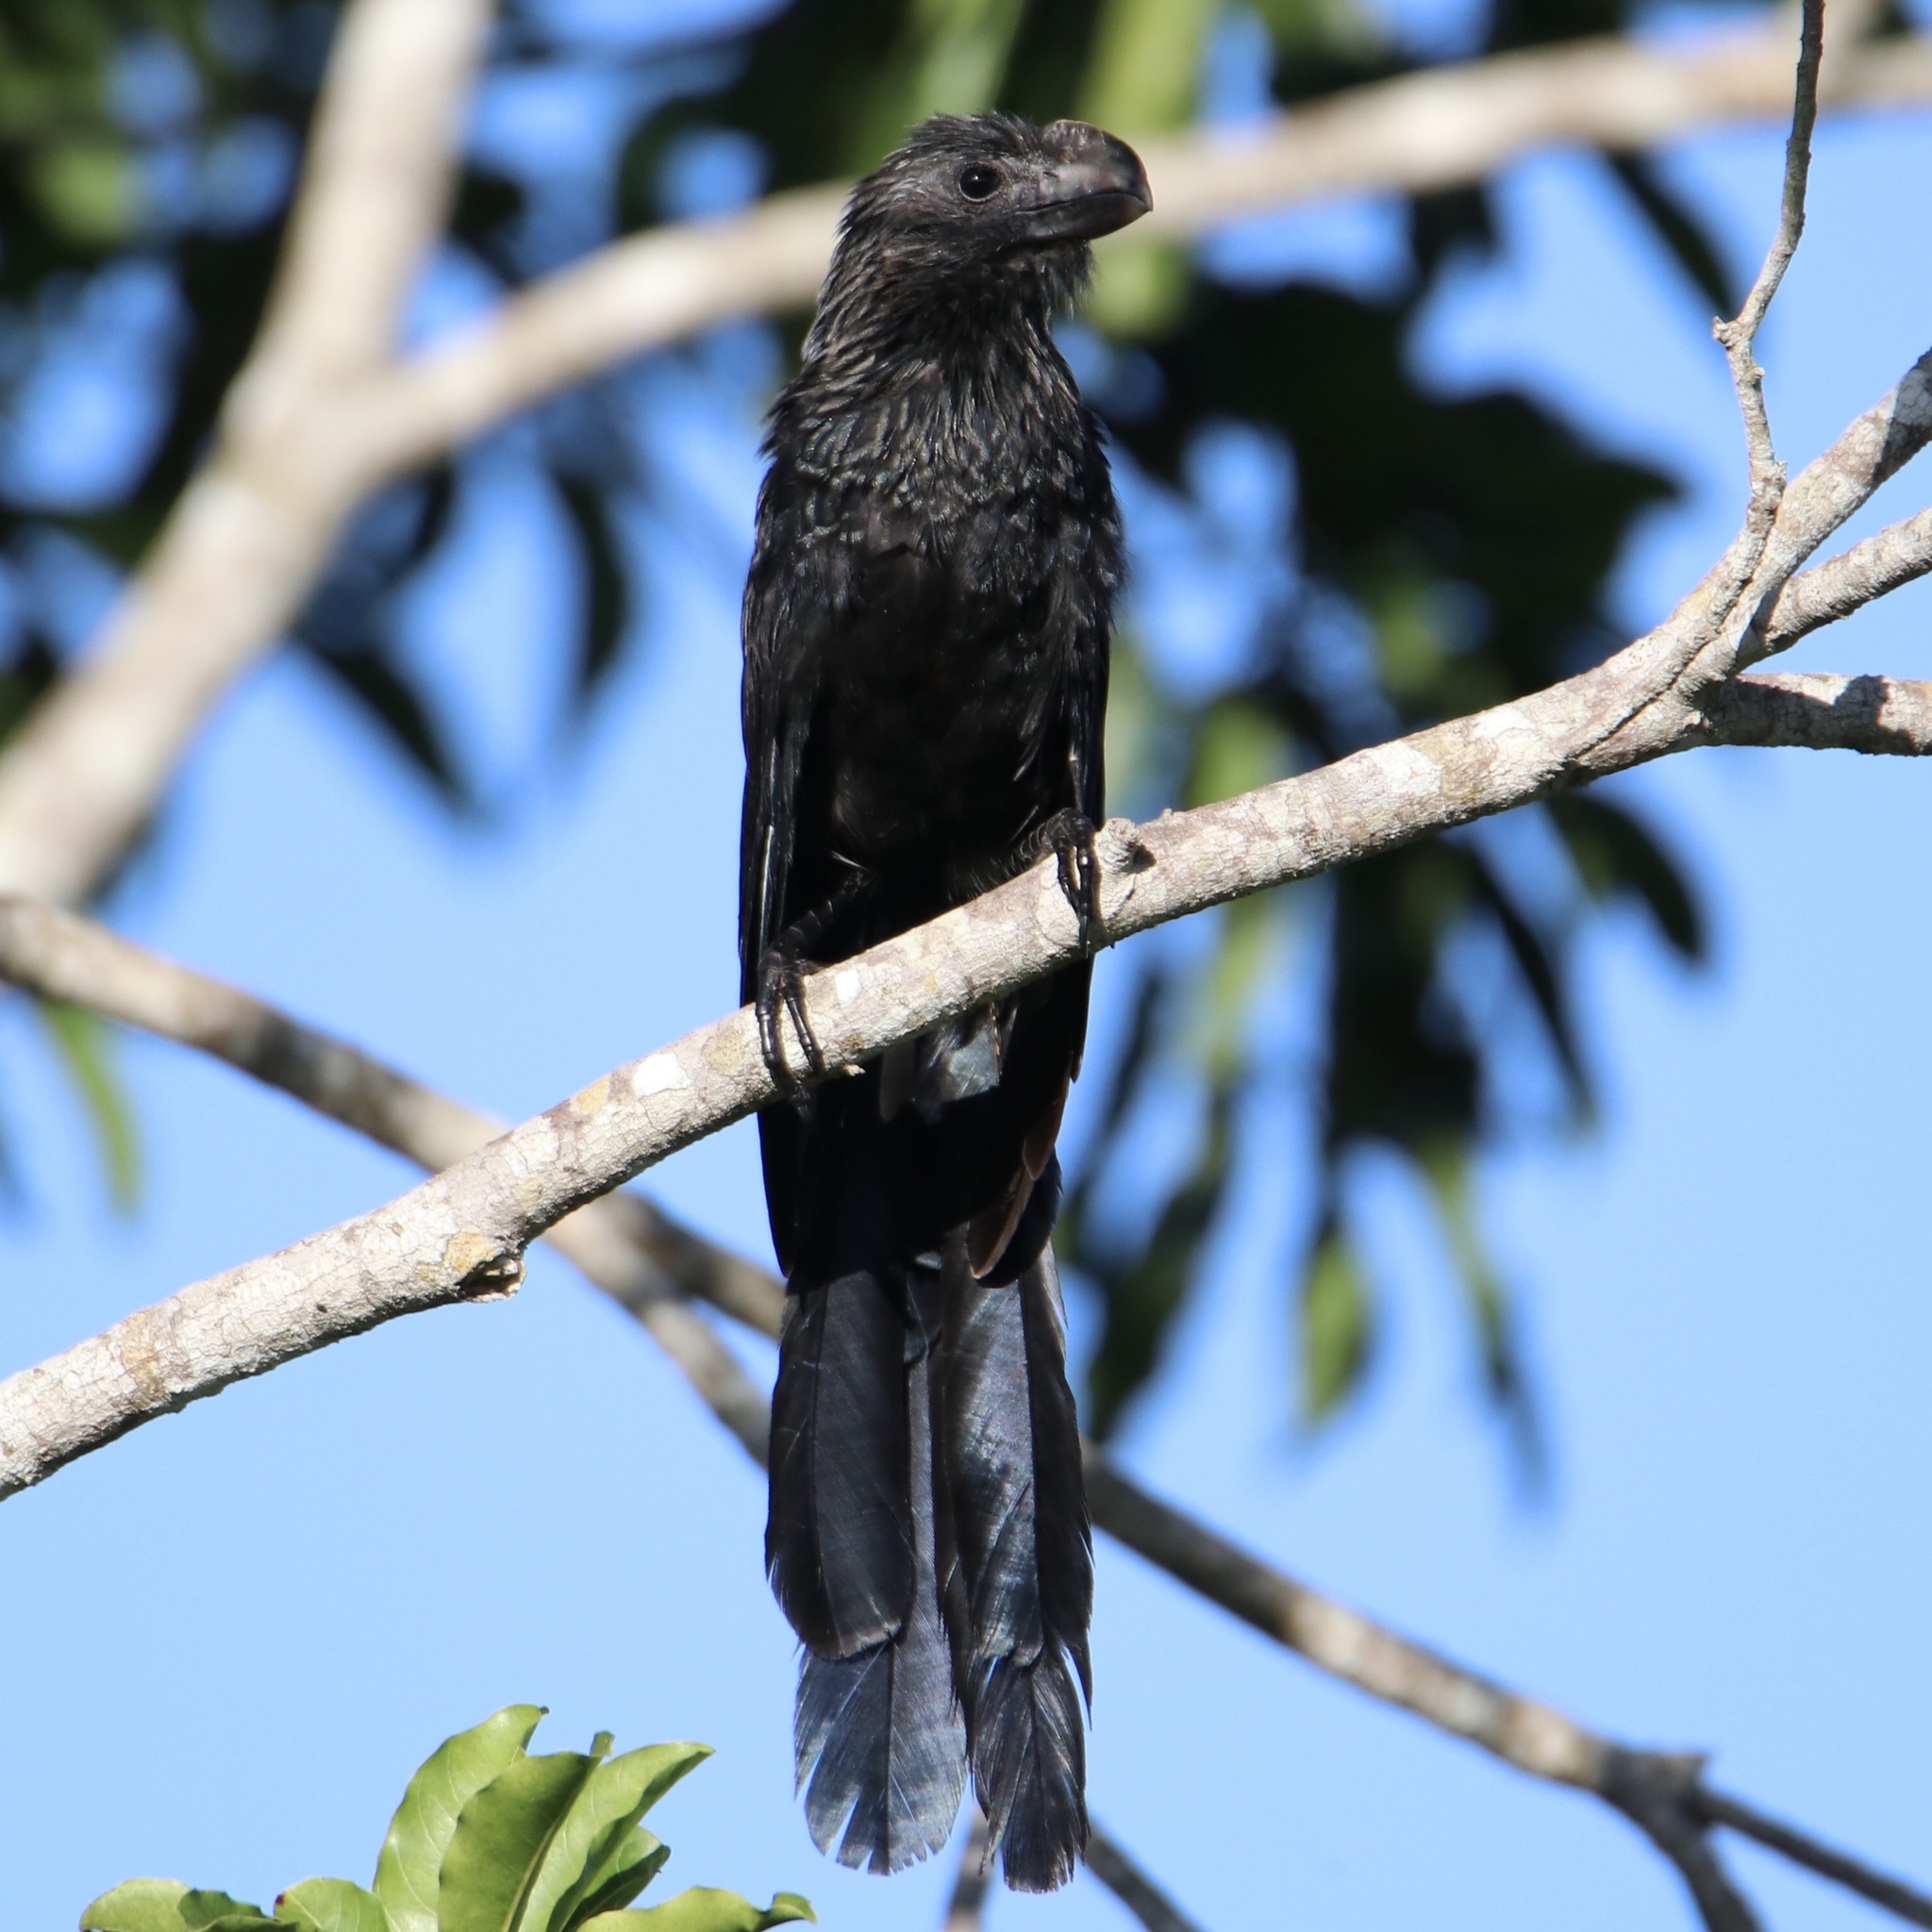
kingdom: Animalia
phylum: Chordata
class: Aves
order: Cuculiformes
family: Cuculidae
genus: Crotophaga
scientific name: Crotophaga ani
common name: Smooth-billed ani
